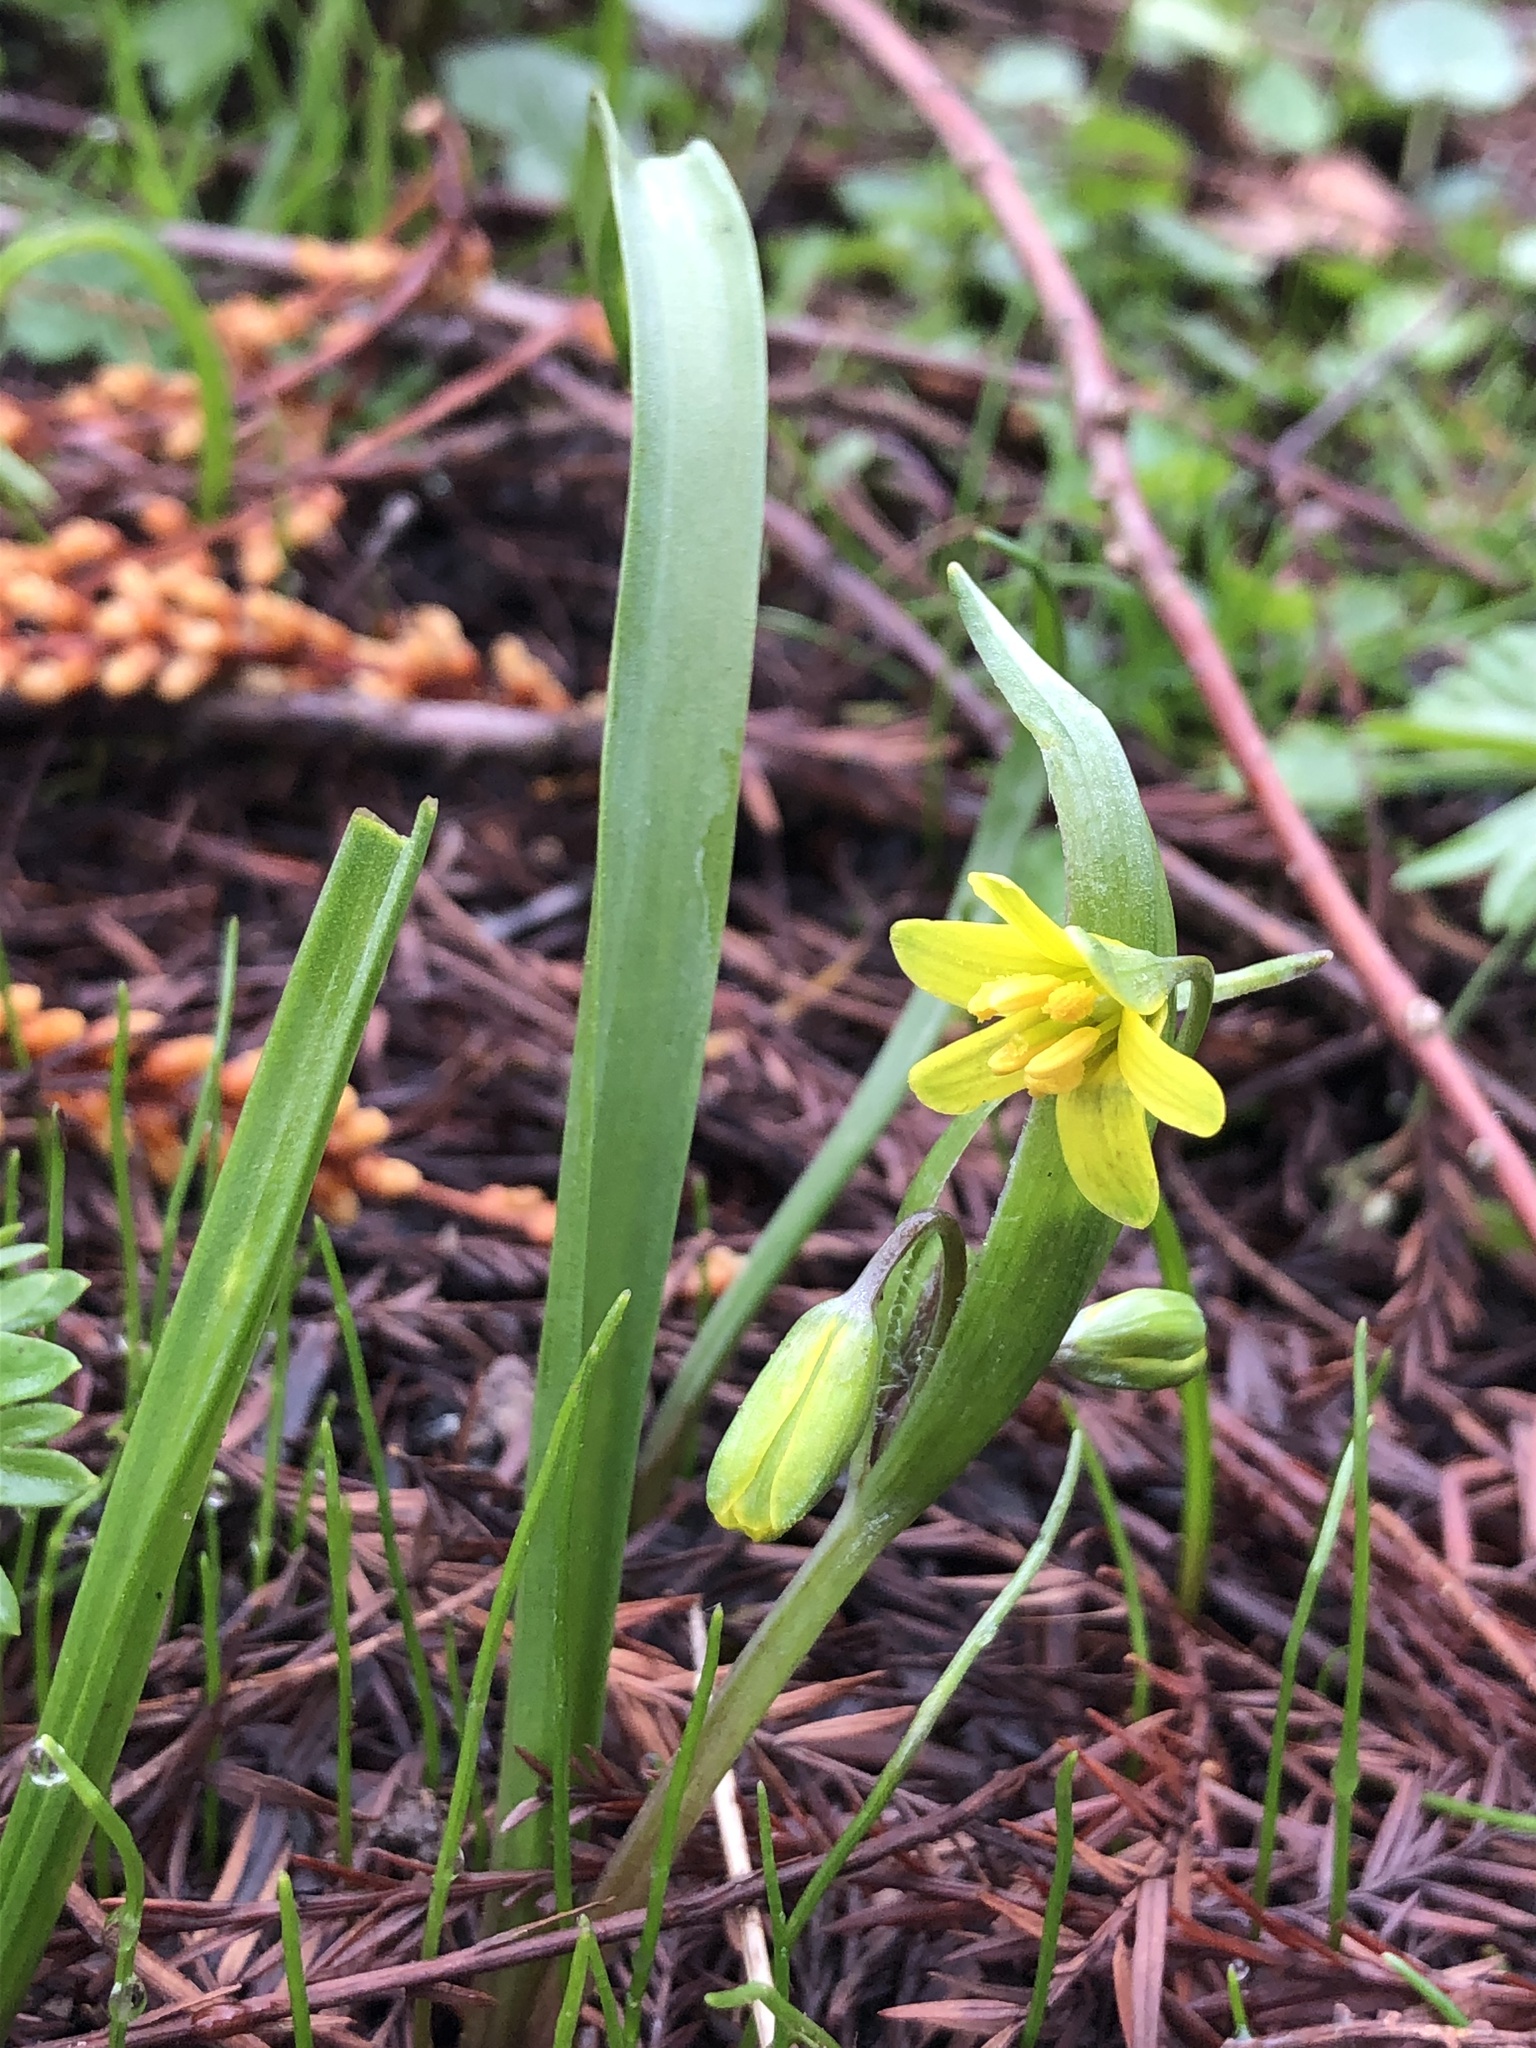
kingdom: Plantae
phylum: Tracheophyta
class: Liliopsida
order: Liliales
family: Liliaceae
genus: Gagea
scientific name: Gagea lutea
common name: Yellow star-of-bethlehem
